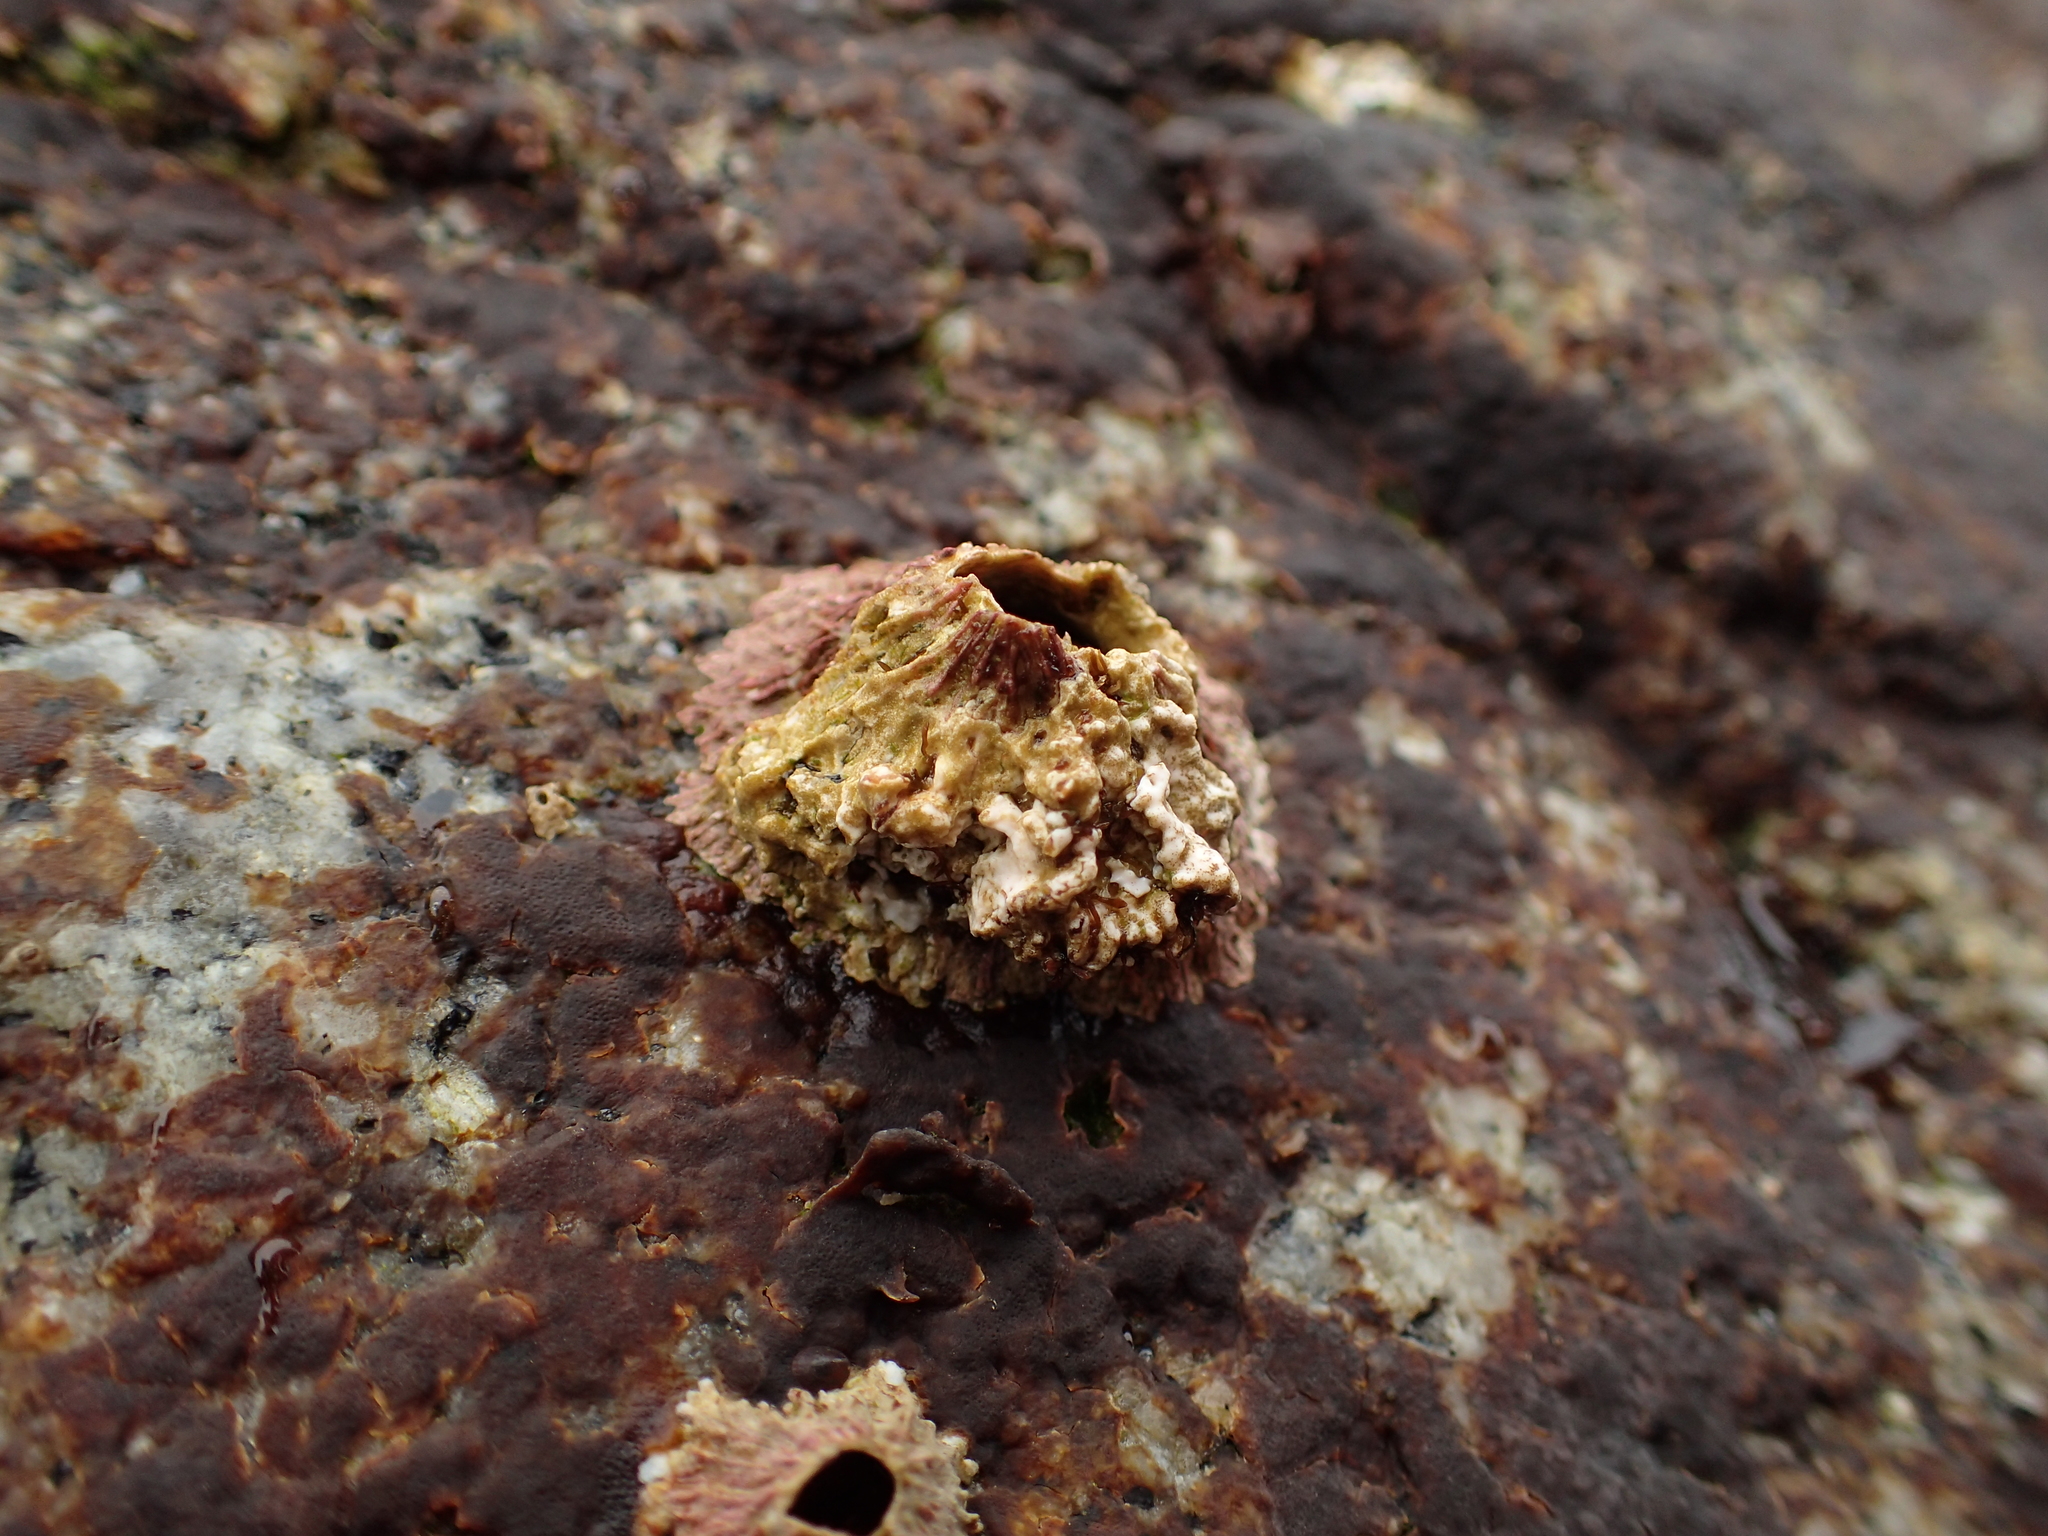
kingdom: Animalia
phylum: Arthropoda
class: Maxillopoda
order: Sessilia
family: Tetraclitidae
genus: Tetraclita
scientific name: Tetraclita rubescens
